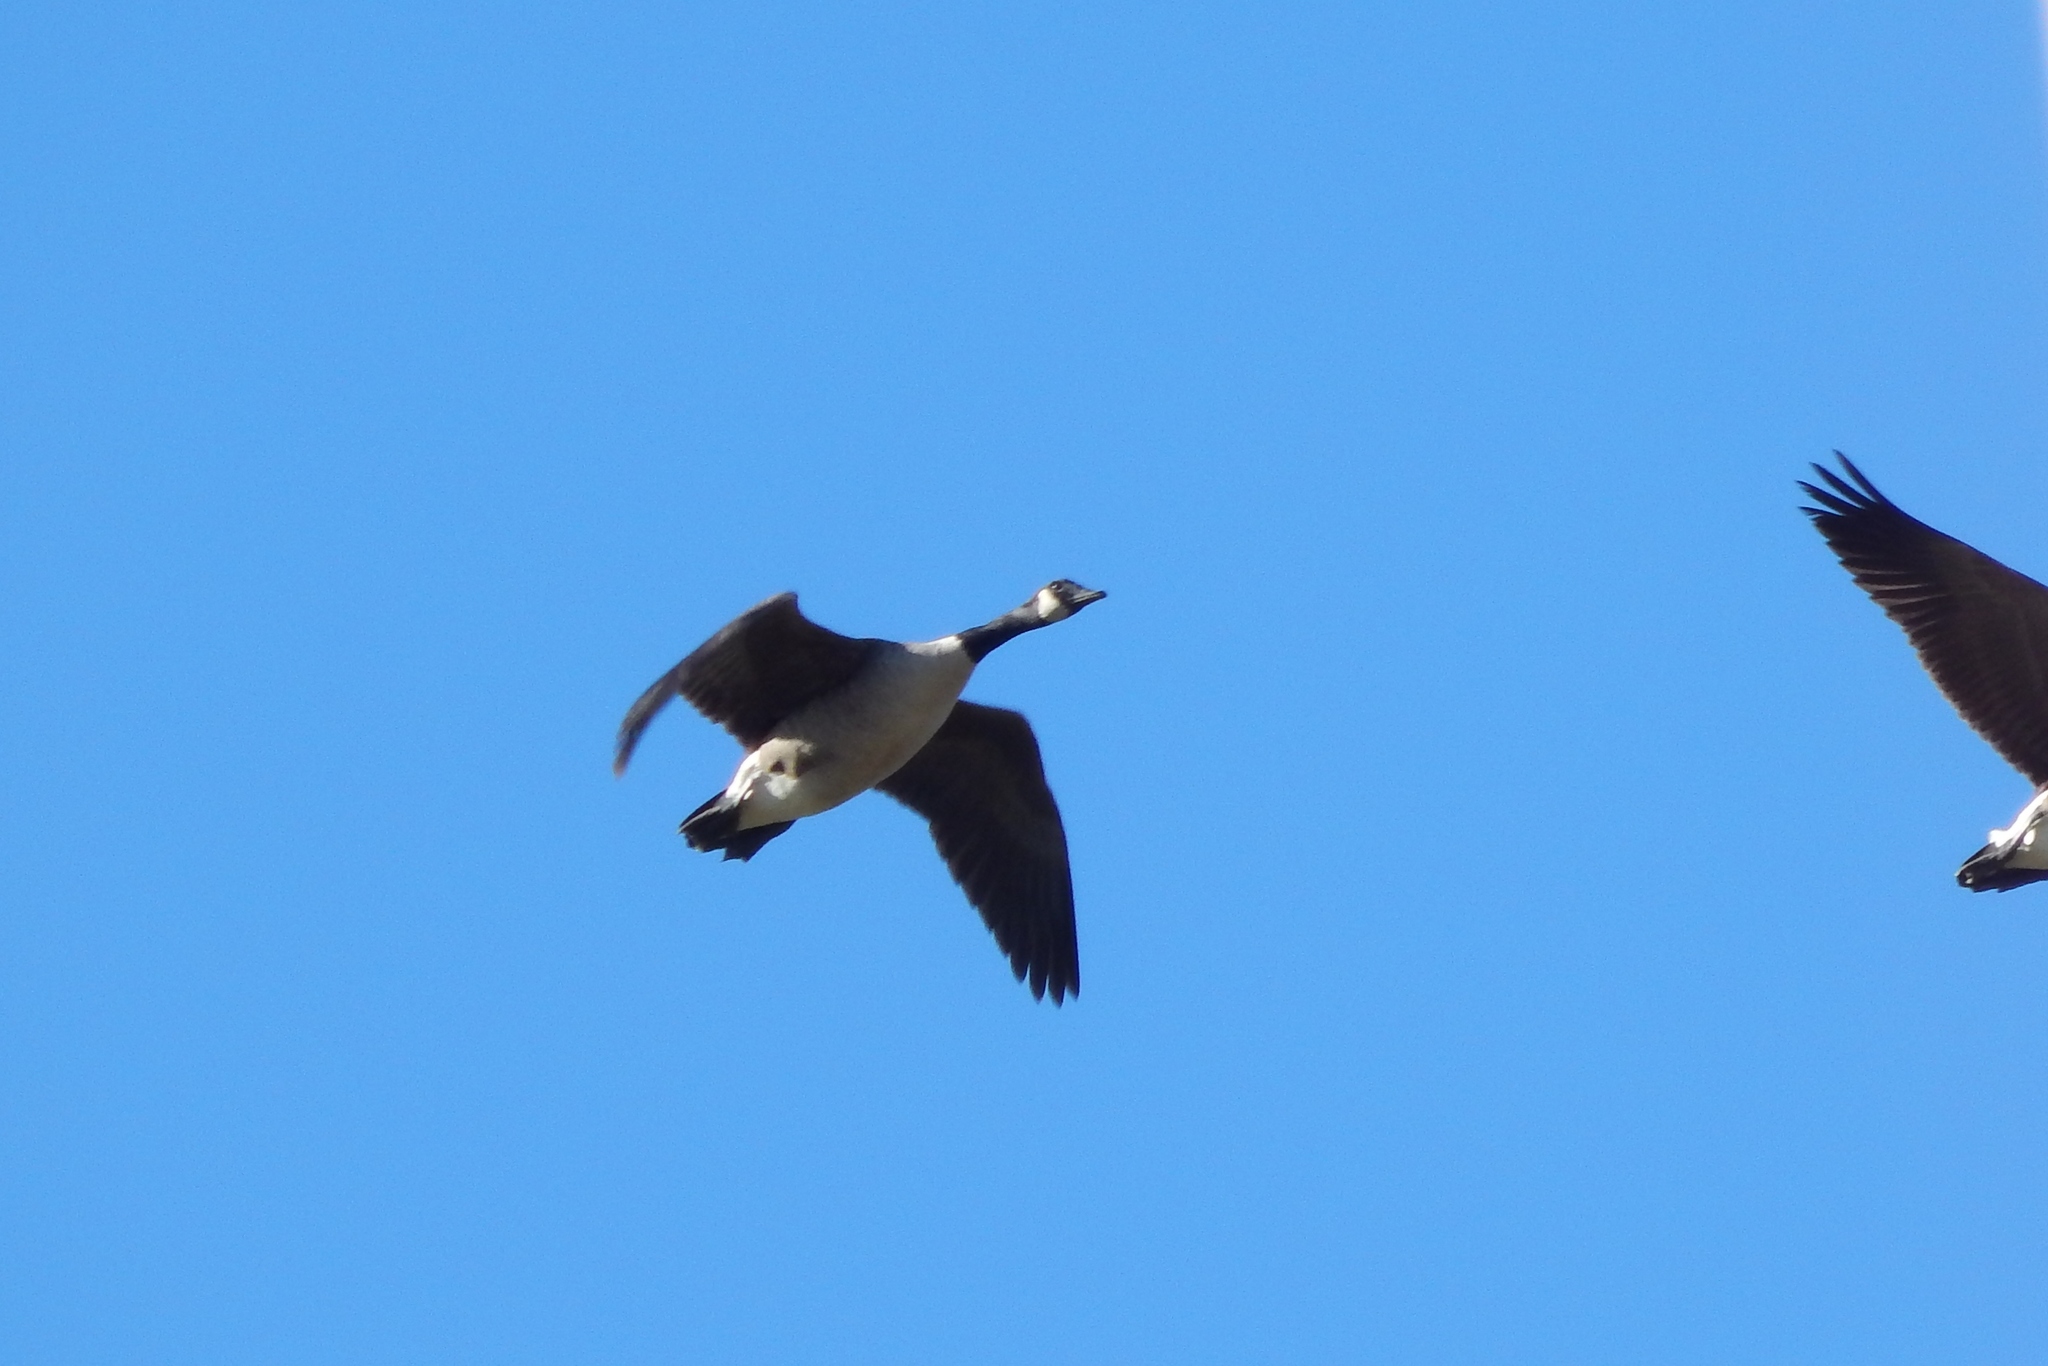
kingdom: Animalia
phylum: Chordata
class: Aves
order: Anseriformes
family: Anatidae
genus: Branta
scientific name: Branta canadensis
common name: Canada goose
